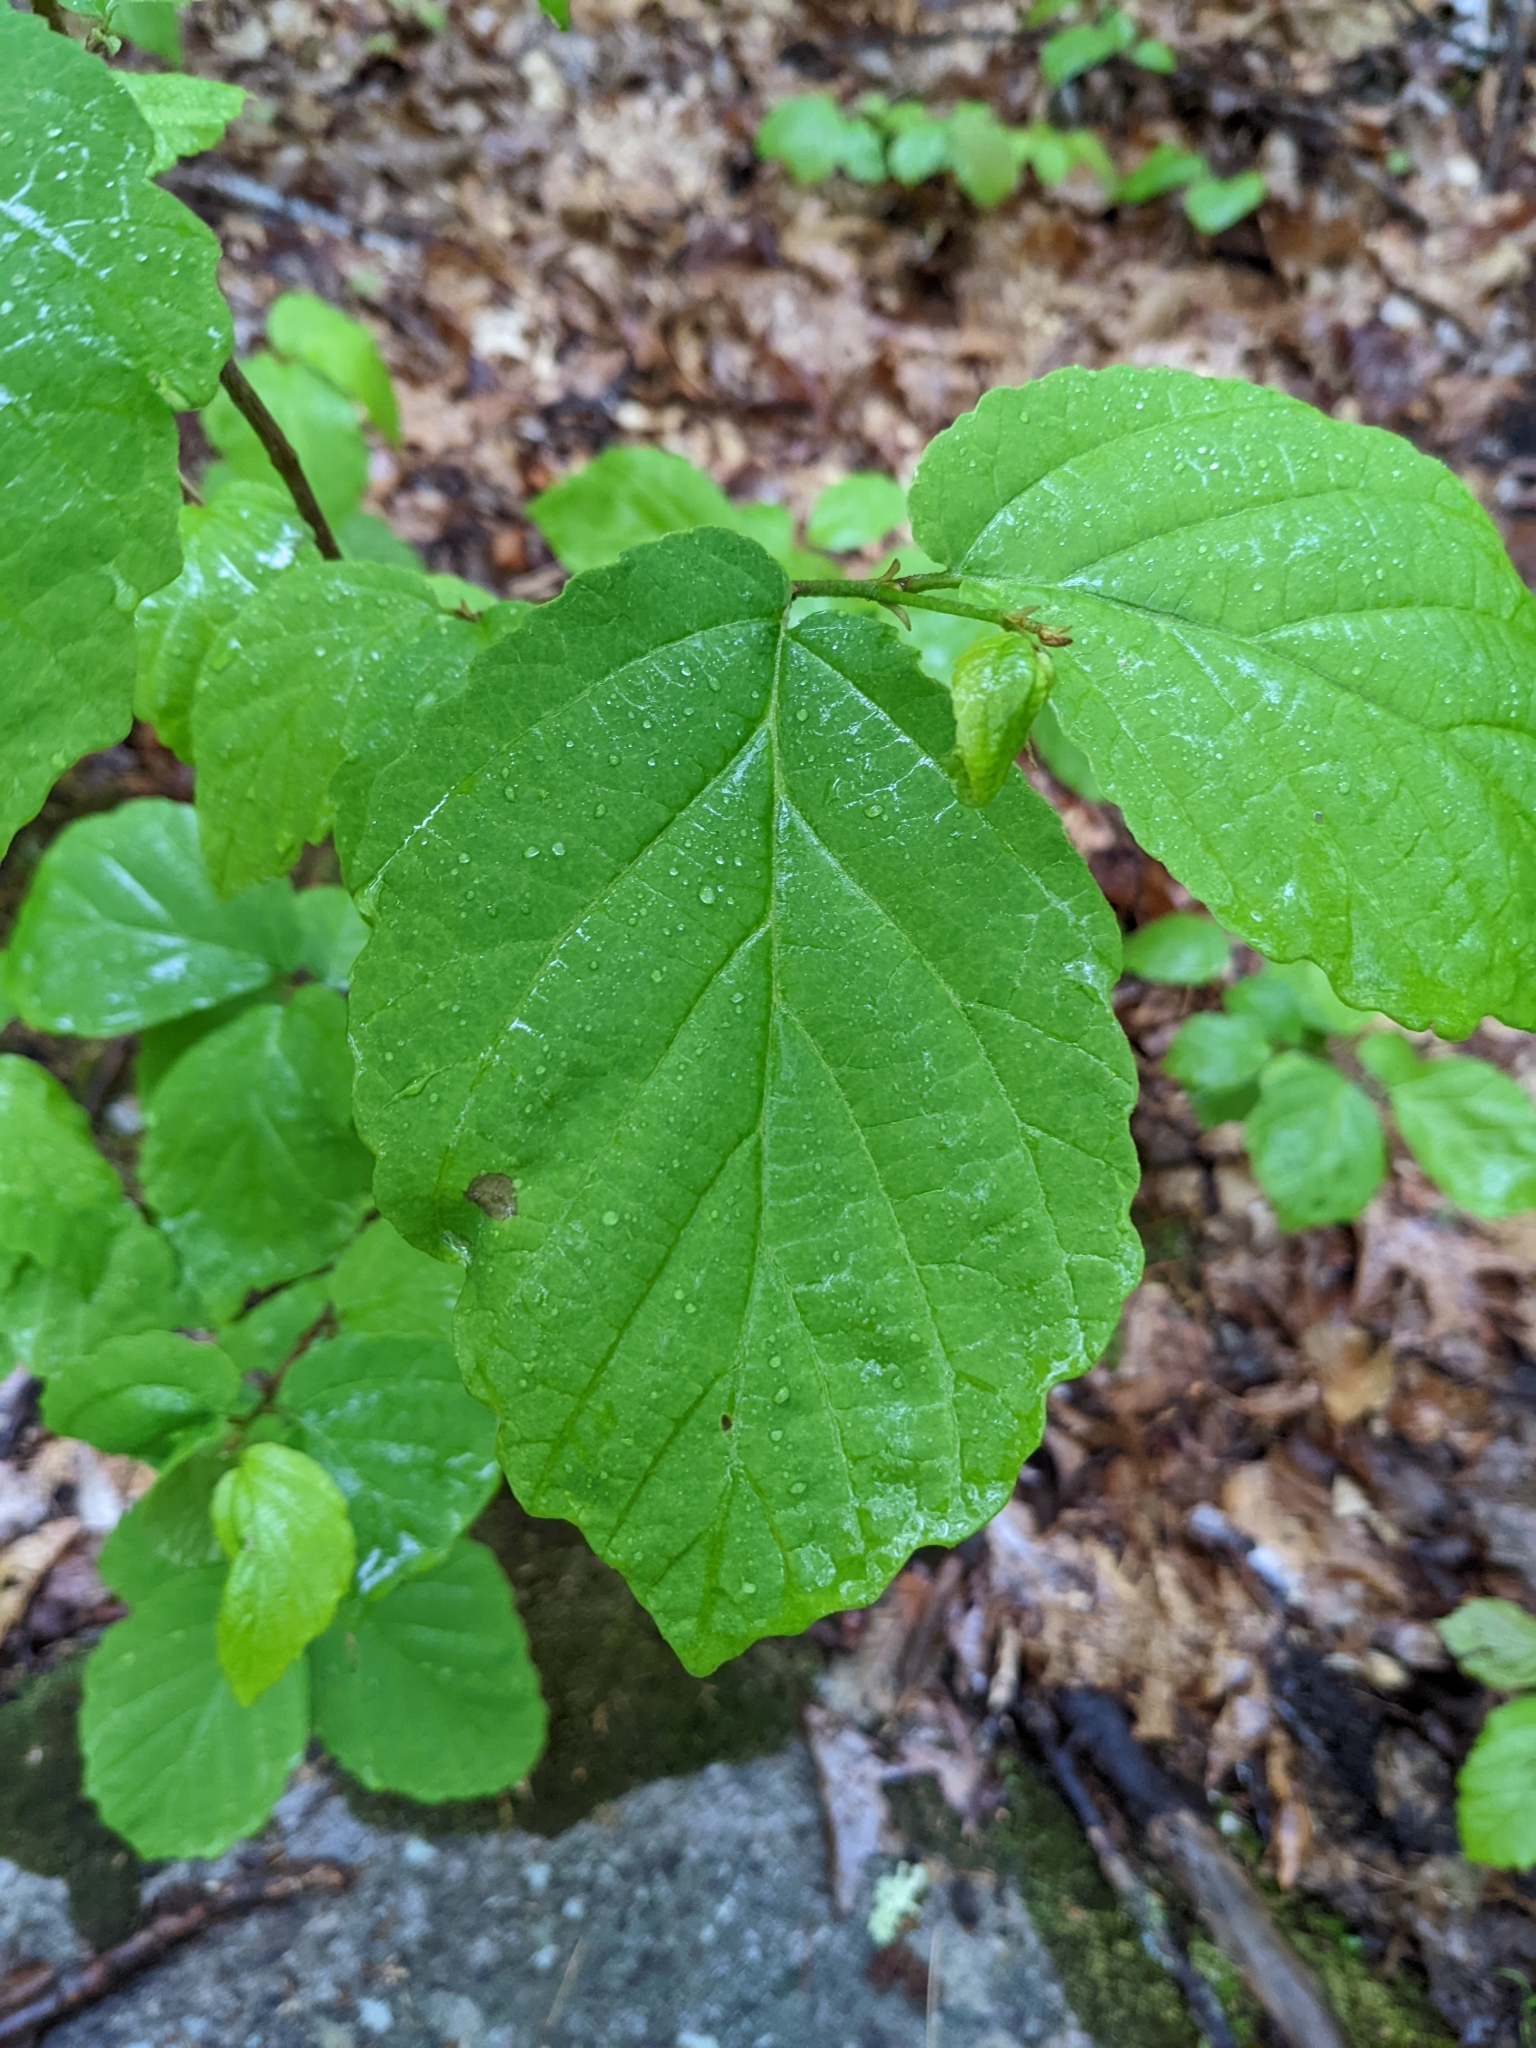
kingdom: Plantae
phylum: Tracheophyta
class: Magnoliopsida
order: Saxifragales
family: Hamamelidaceae
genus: Hamamelis
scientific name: Hamamelis virginiana
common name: Witch-hazel
